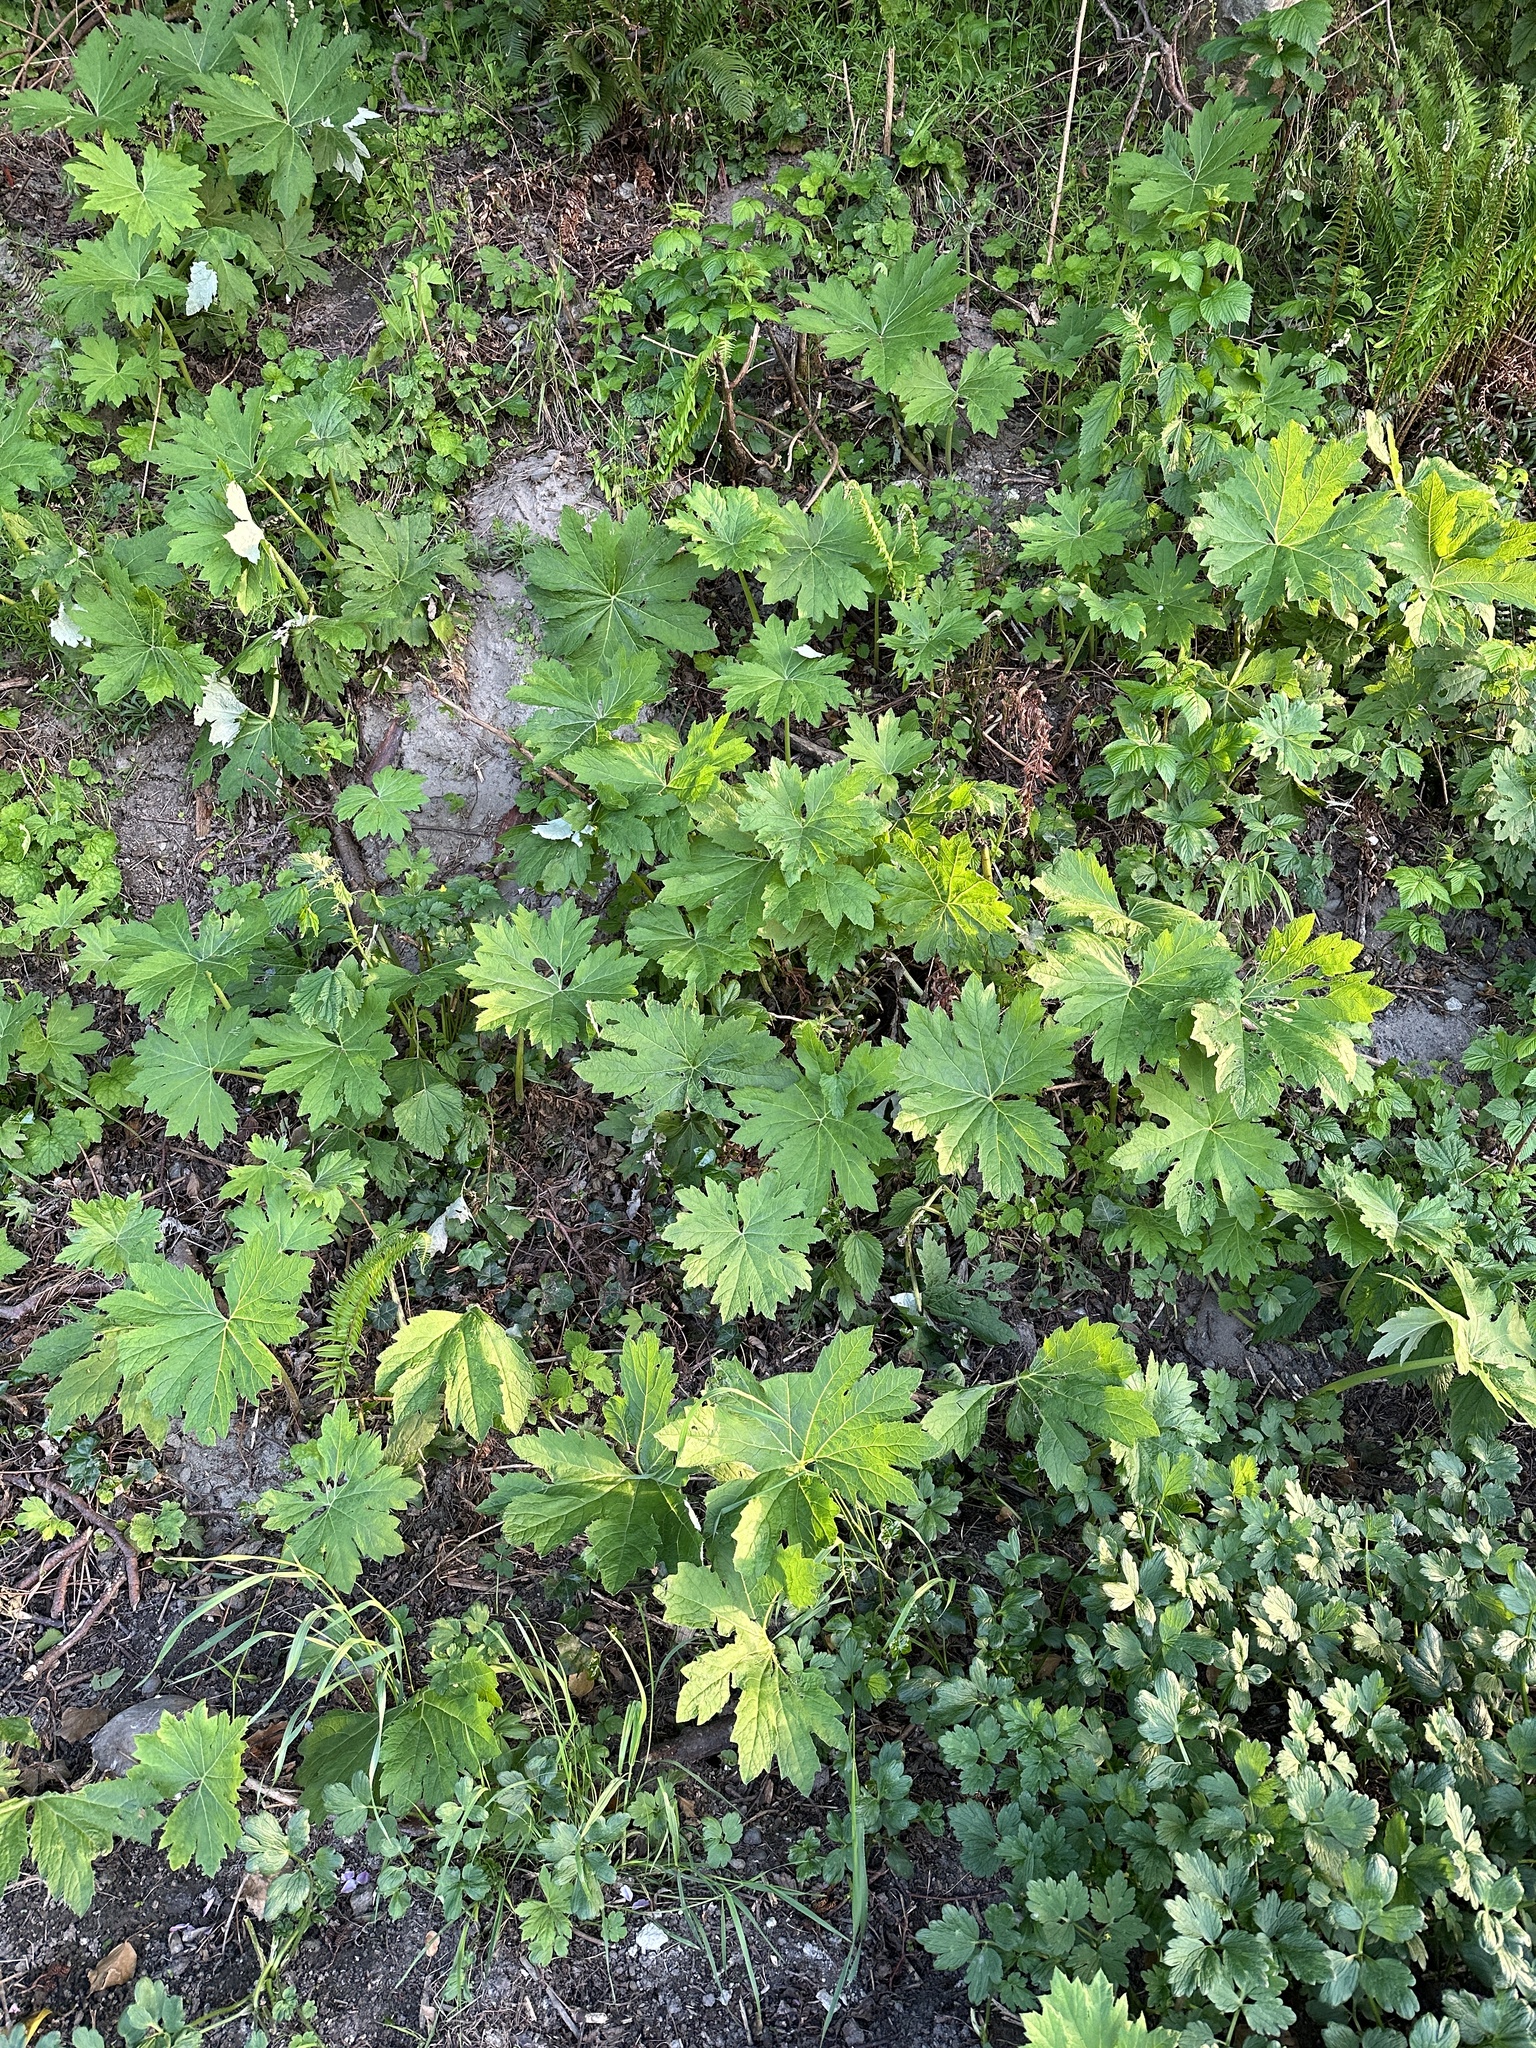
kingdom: Plantae
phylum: Tracheophyta
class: Magnoliopsida
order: Asterales
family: Asteraceae
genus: Petasites
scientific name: Petasites frigidus
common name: Arctic butterbur
